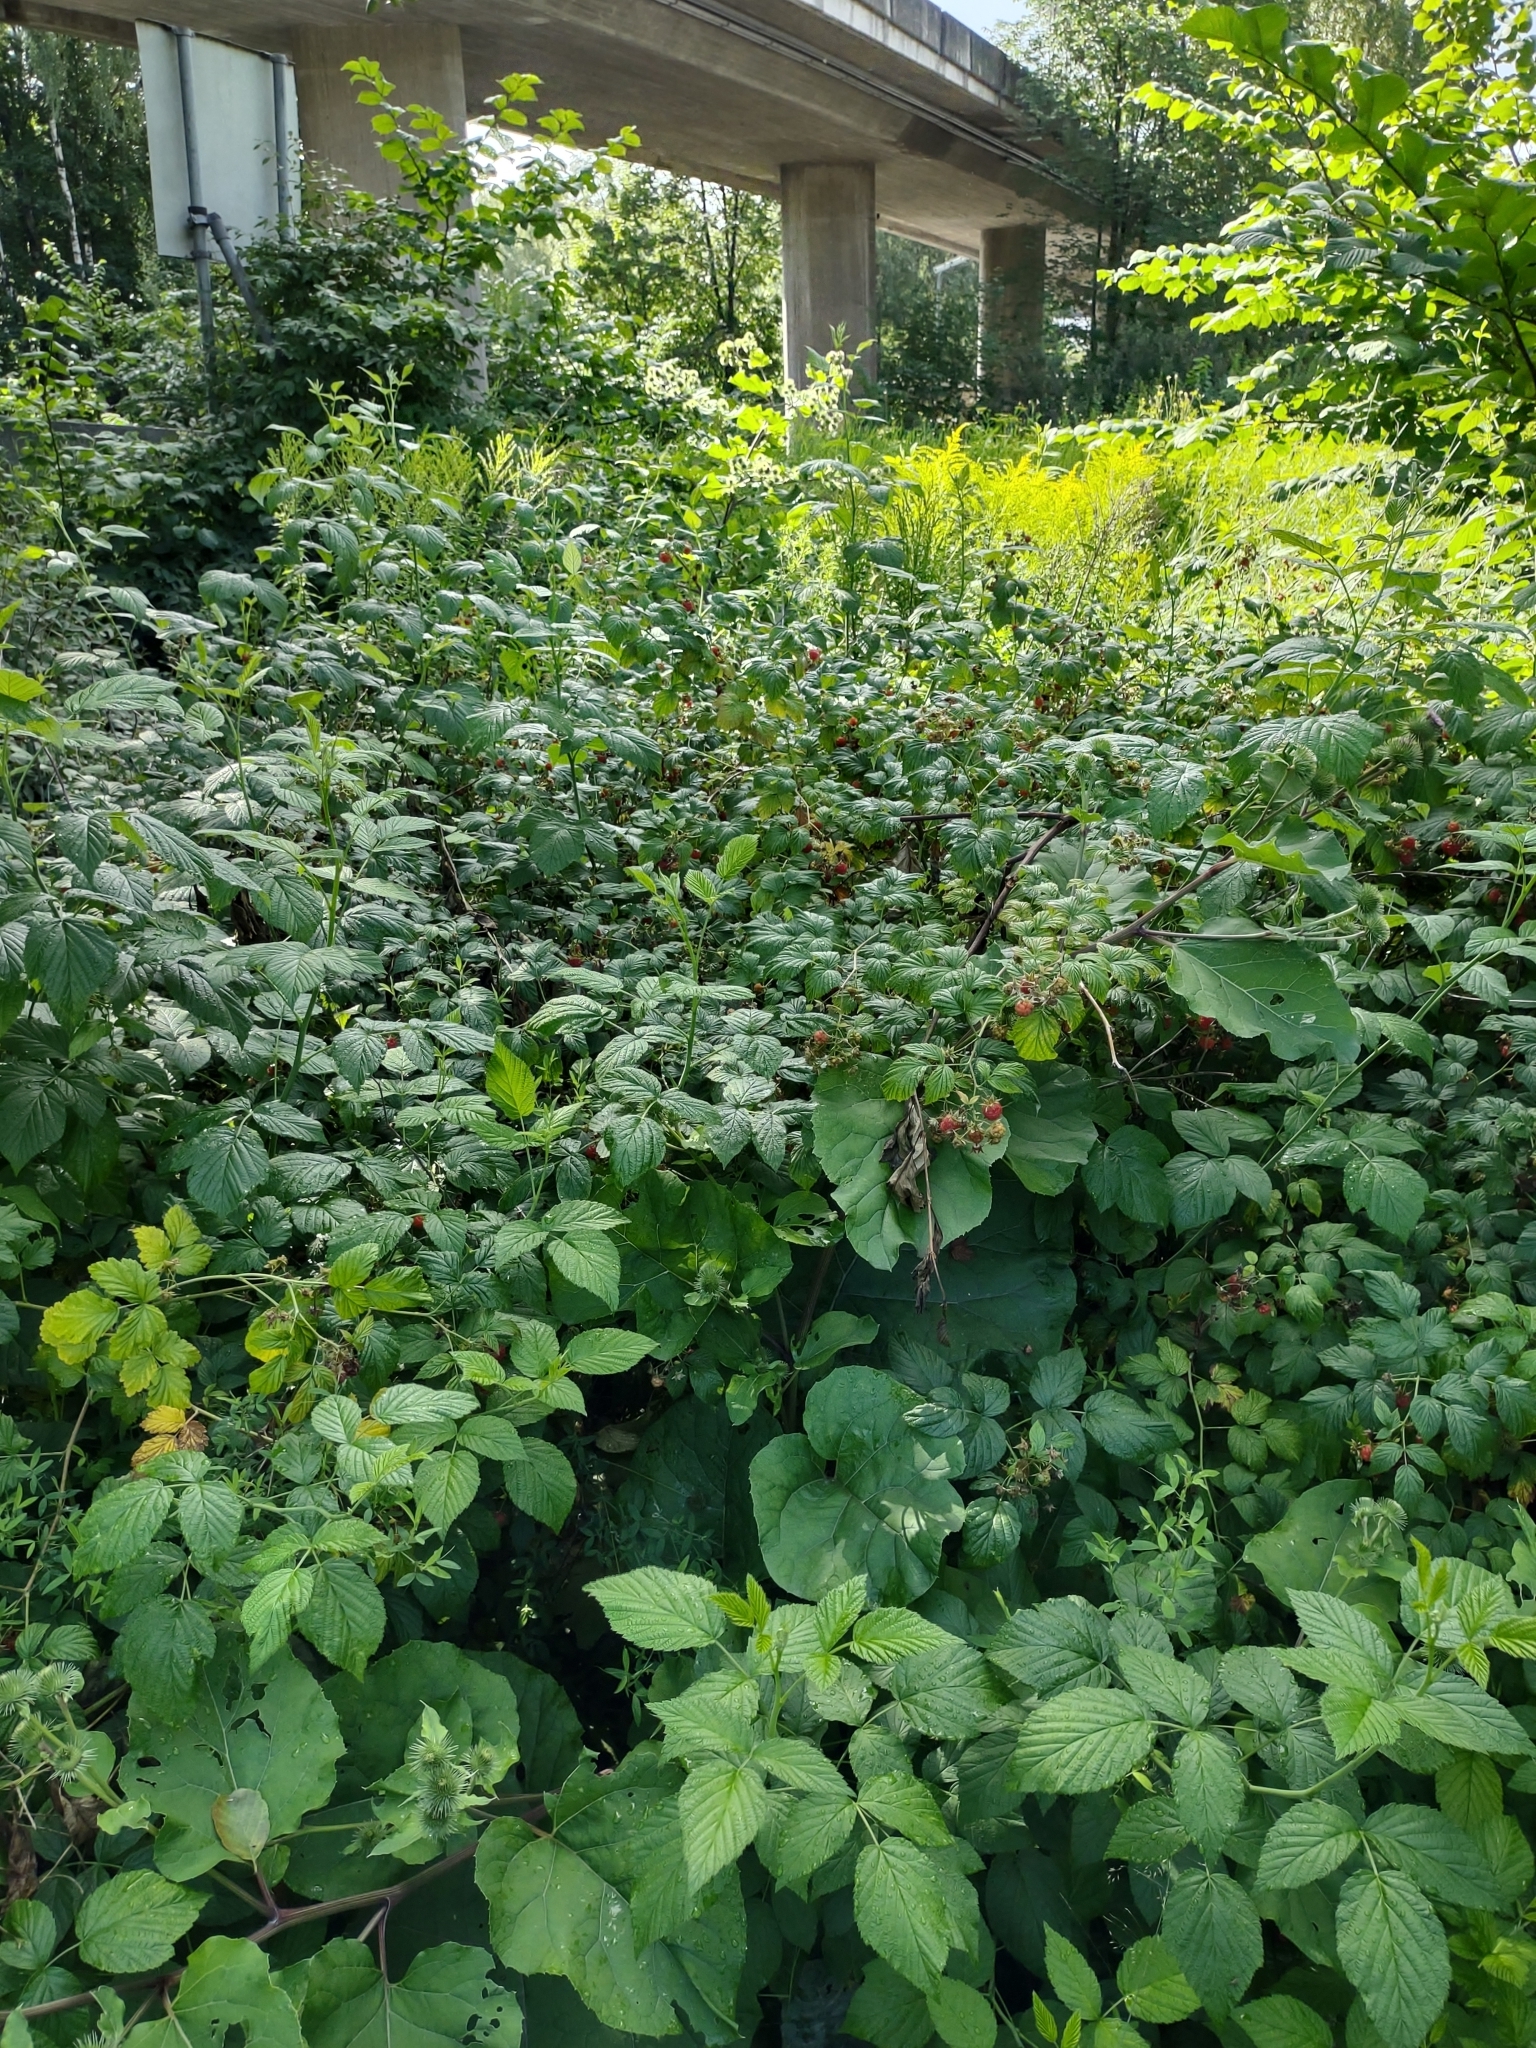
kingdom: Plantae
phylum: Tracheophyta
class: Magnoliopsida
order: Rosales
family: Rosaceae
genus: Rubus
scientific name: Rubus idaeus
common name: Raspberry
